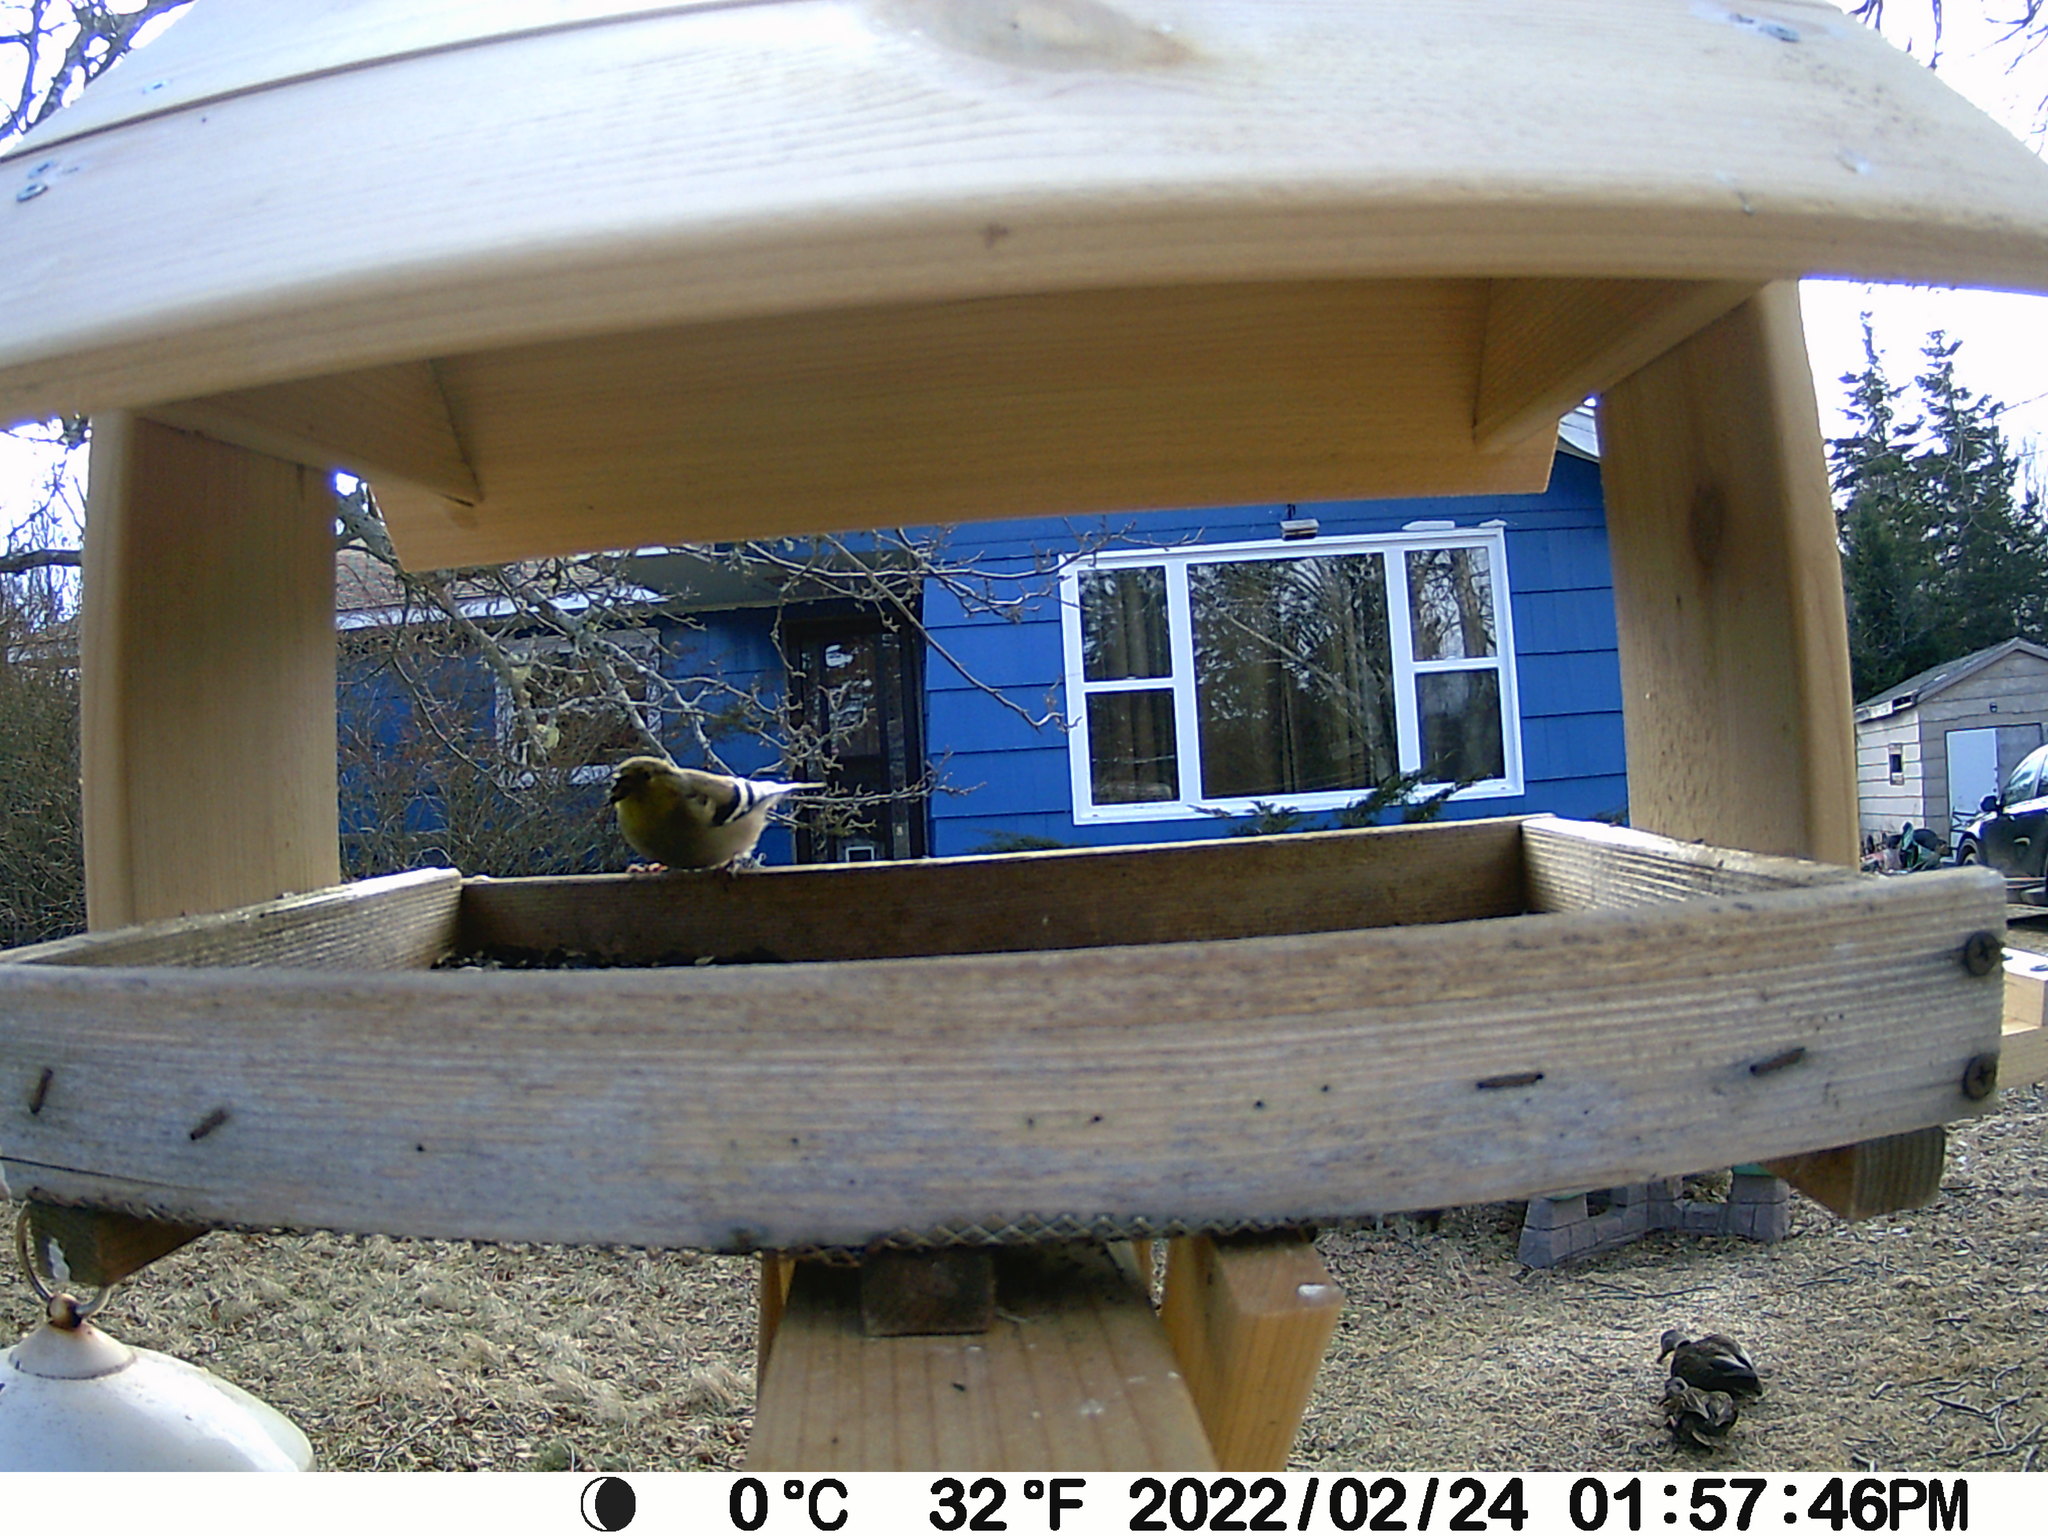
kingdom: Animalia
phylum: Chordata
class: Aves
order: Anseriformes
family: Anatidae
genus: Anas
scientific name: Anas rubripes
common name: American black duck
